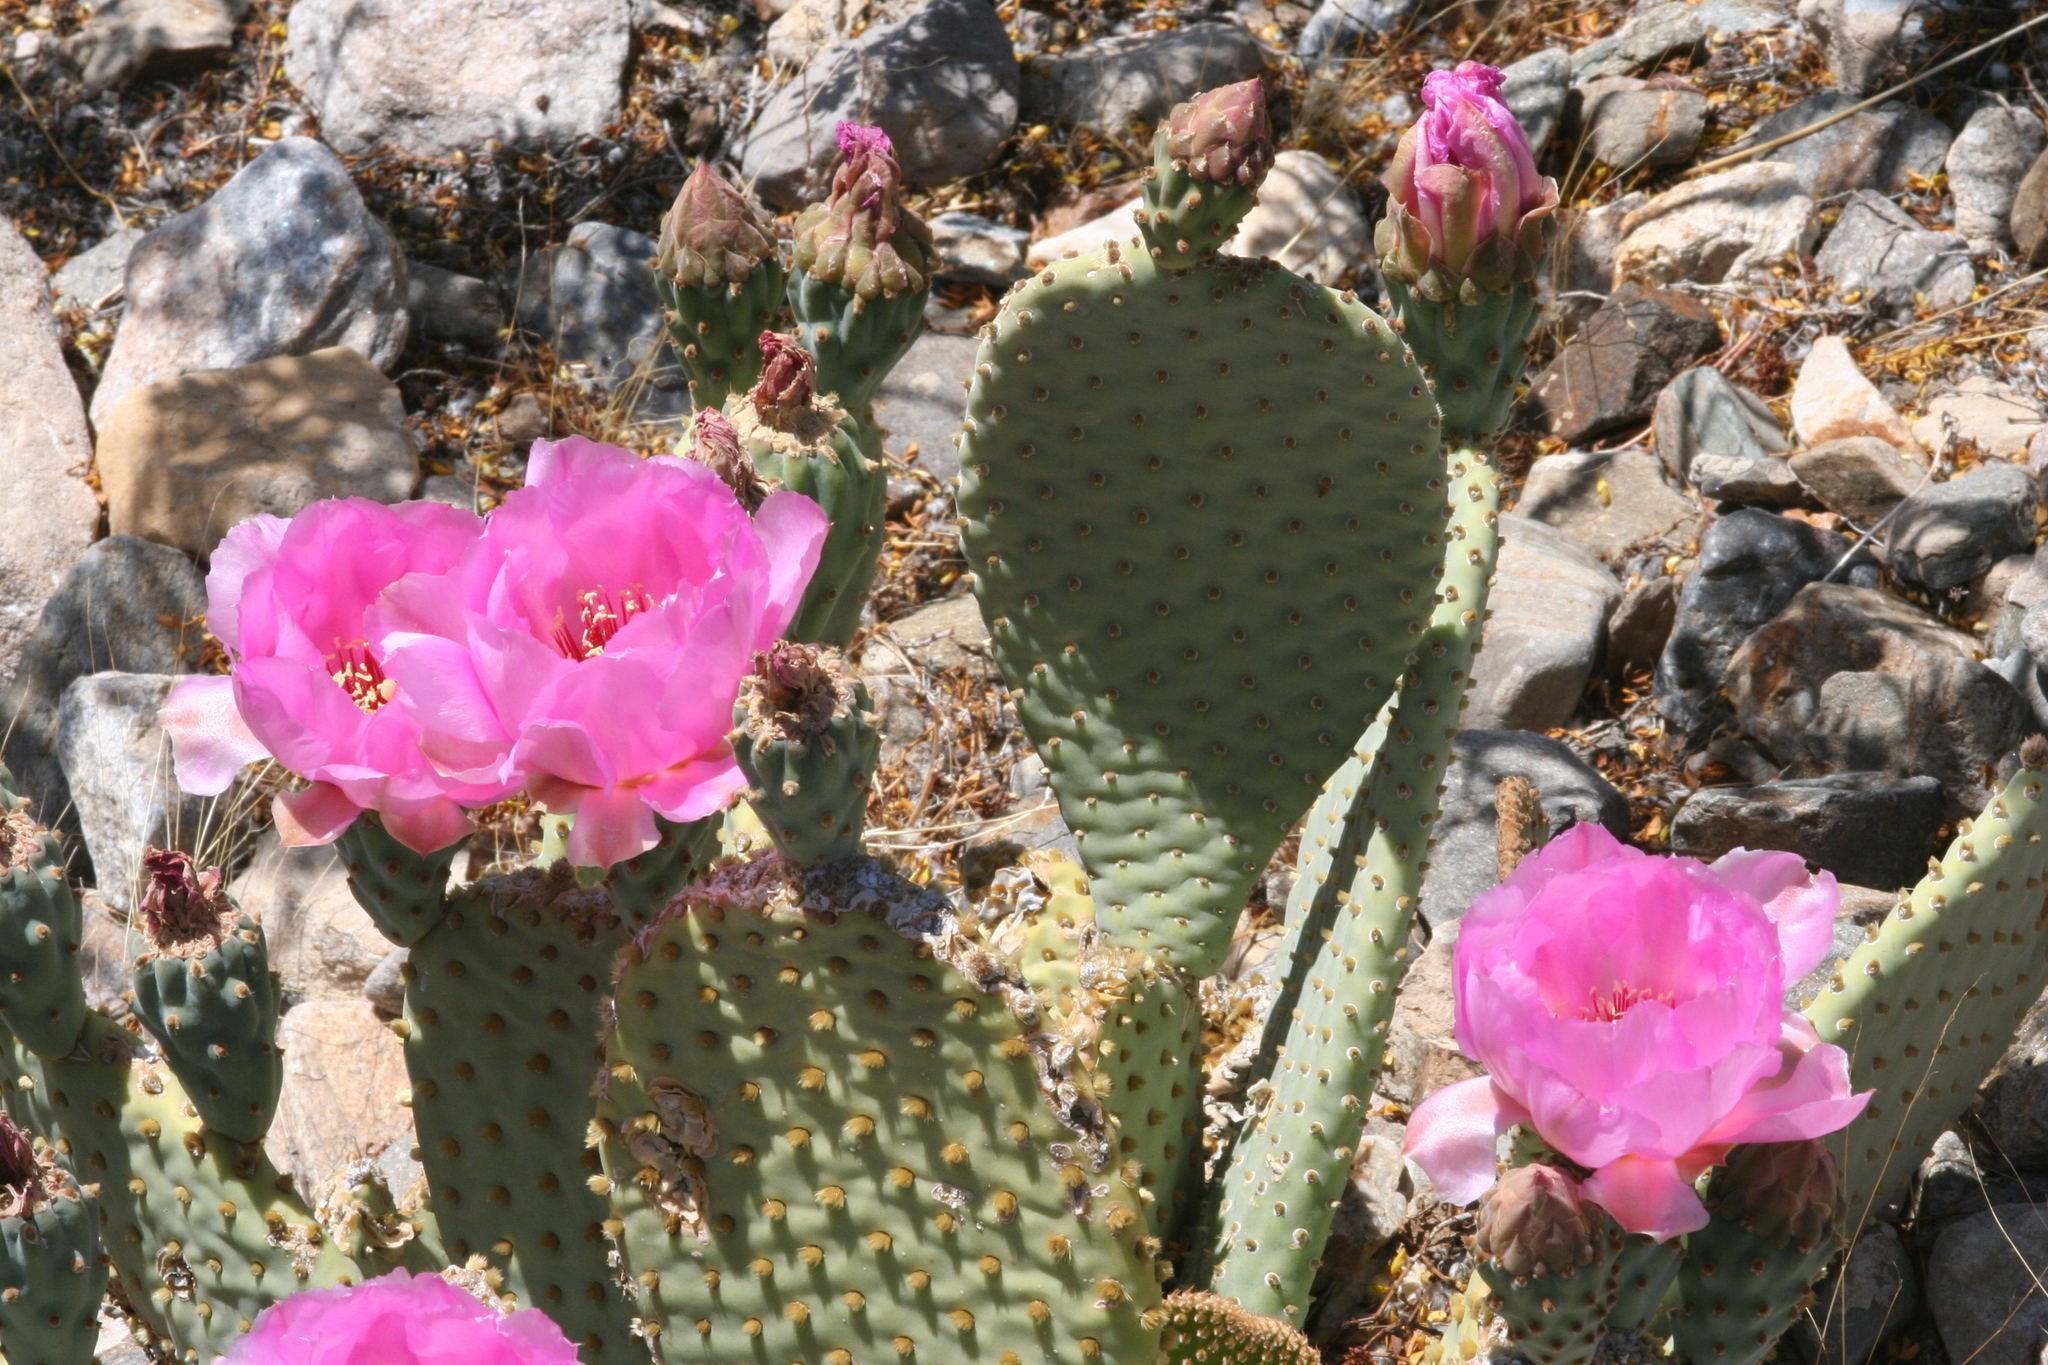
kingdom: Plantae
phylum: Tracheophyta
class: Magnoliopsida
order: Caryophyllales
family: Cactaceae
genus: Opuntia
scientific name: Opuntia basilaris
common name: Beavertail prickly-pear
